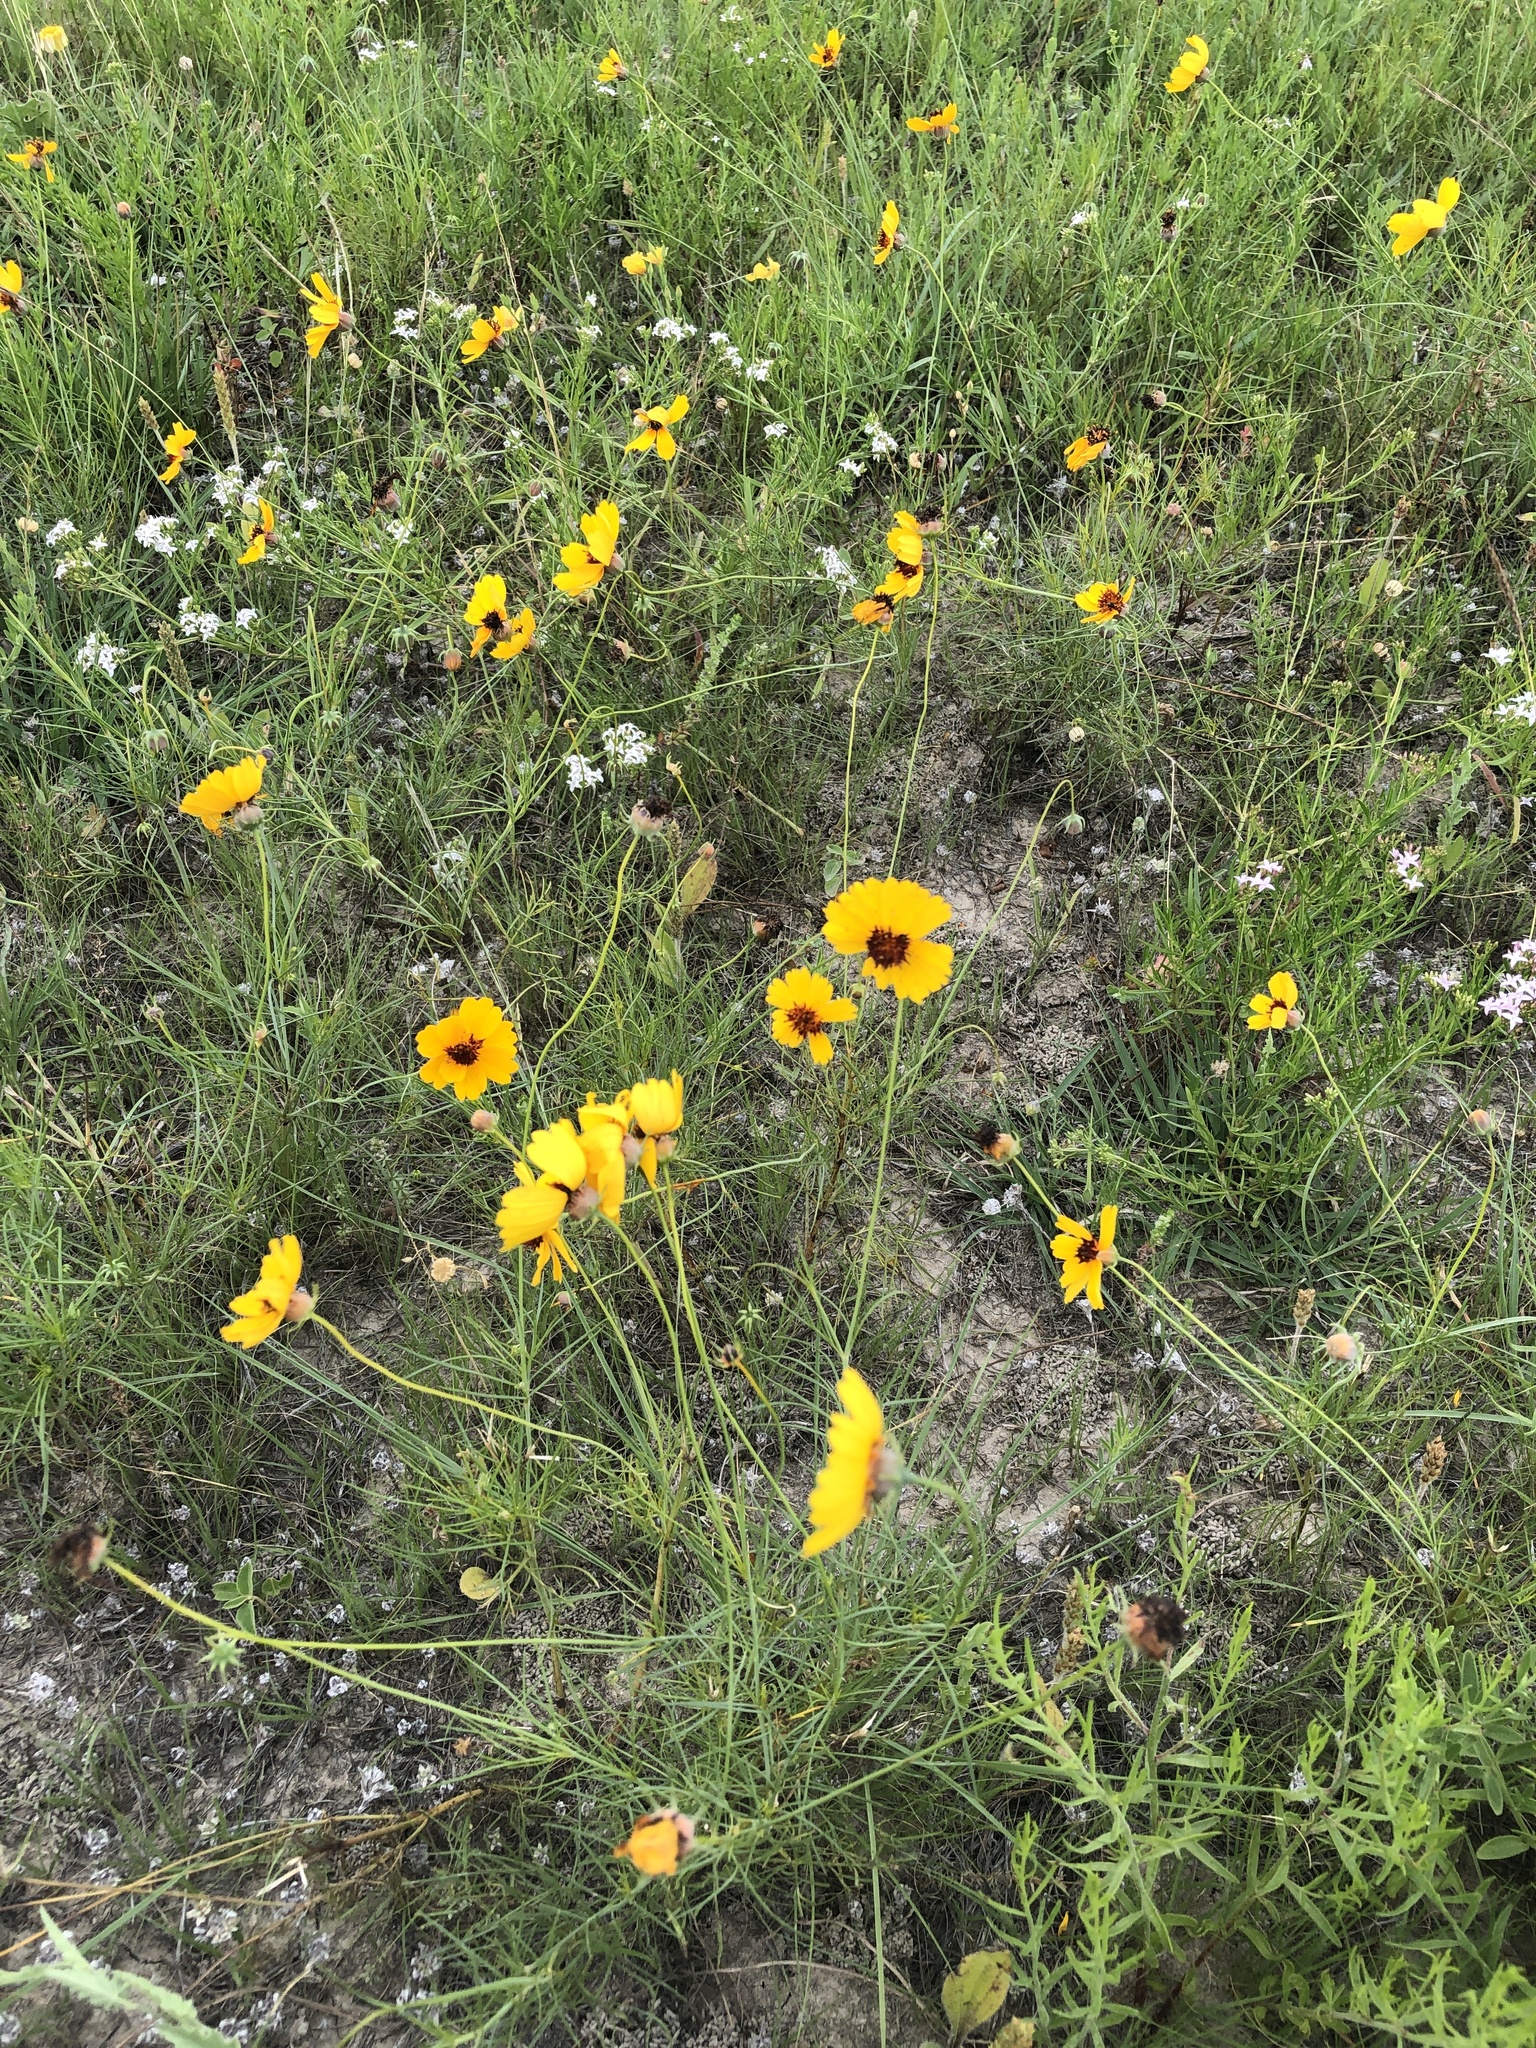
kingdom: Plantae
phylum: Tracheophyta
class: Magnoliopsida
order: Asterales
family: Asteraceae
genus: Thelesperma
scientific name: Thelesperma filifolium
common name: Stiff greenthread
